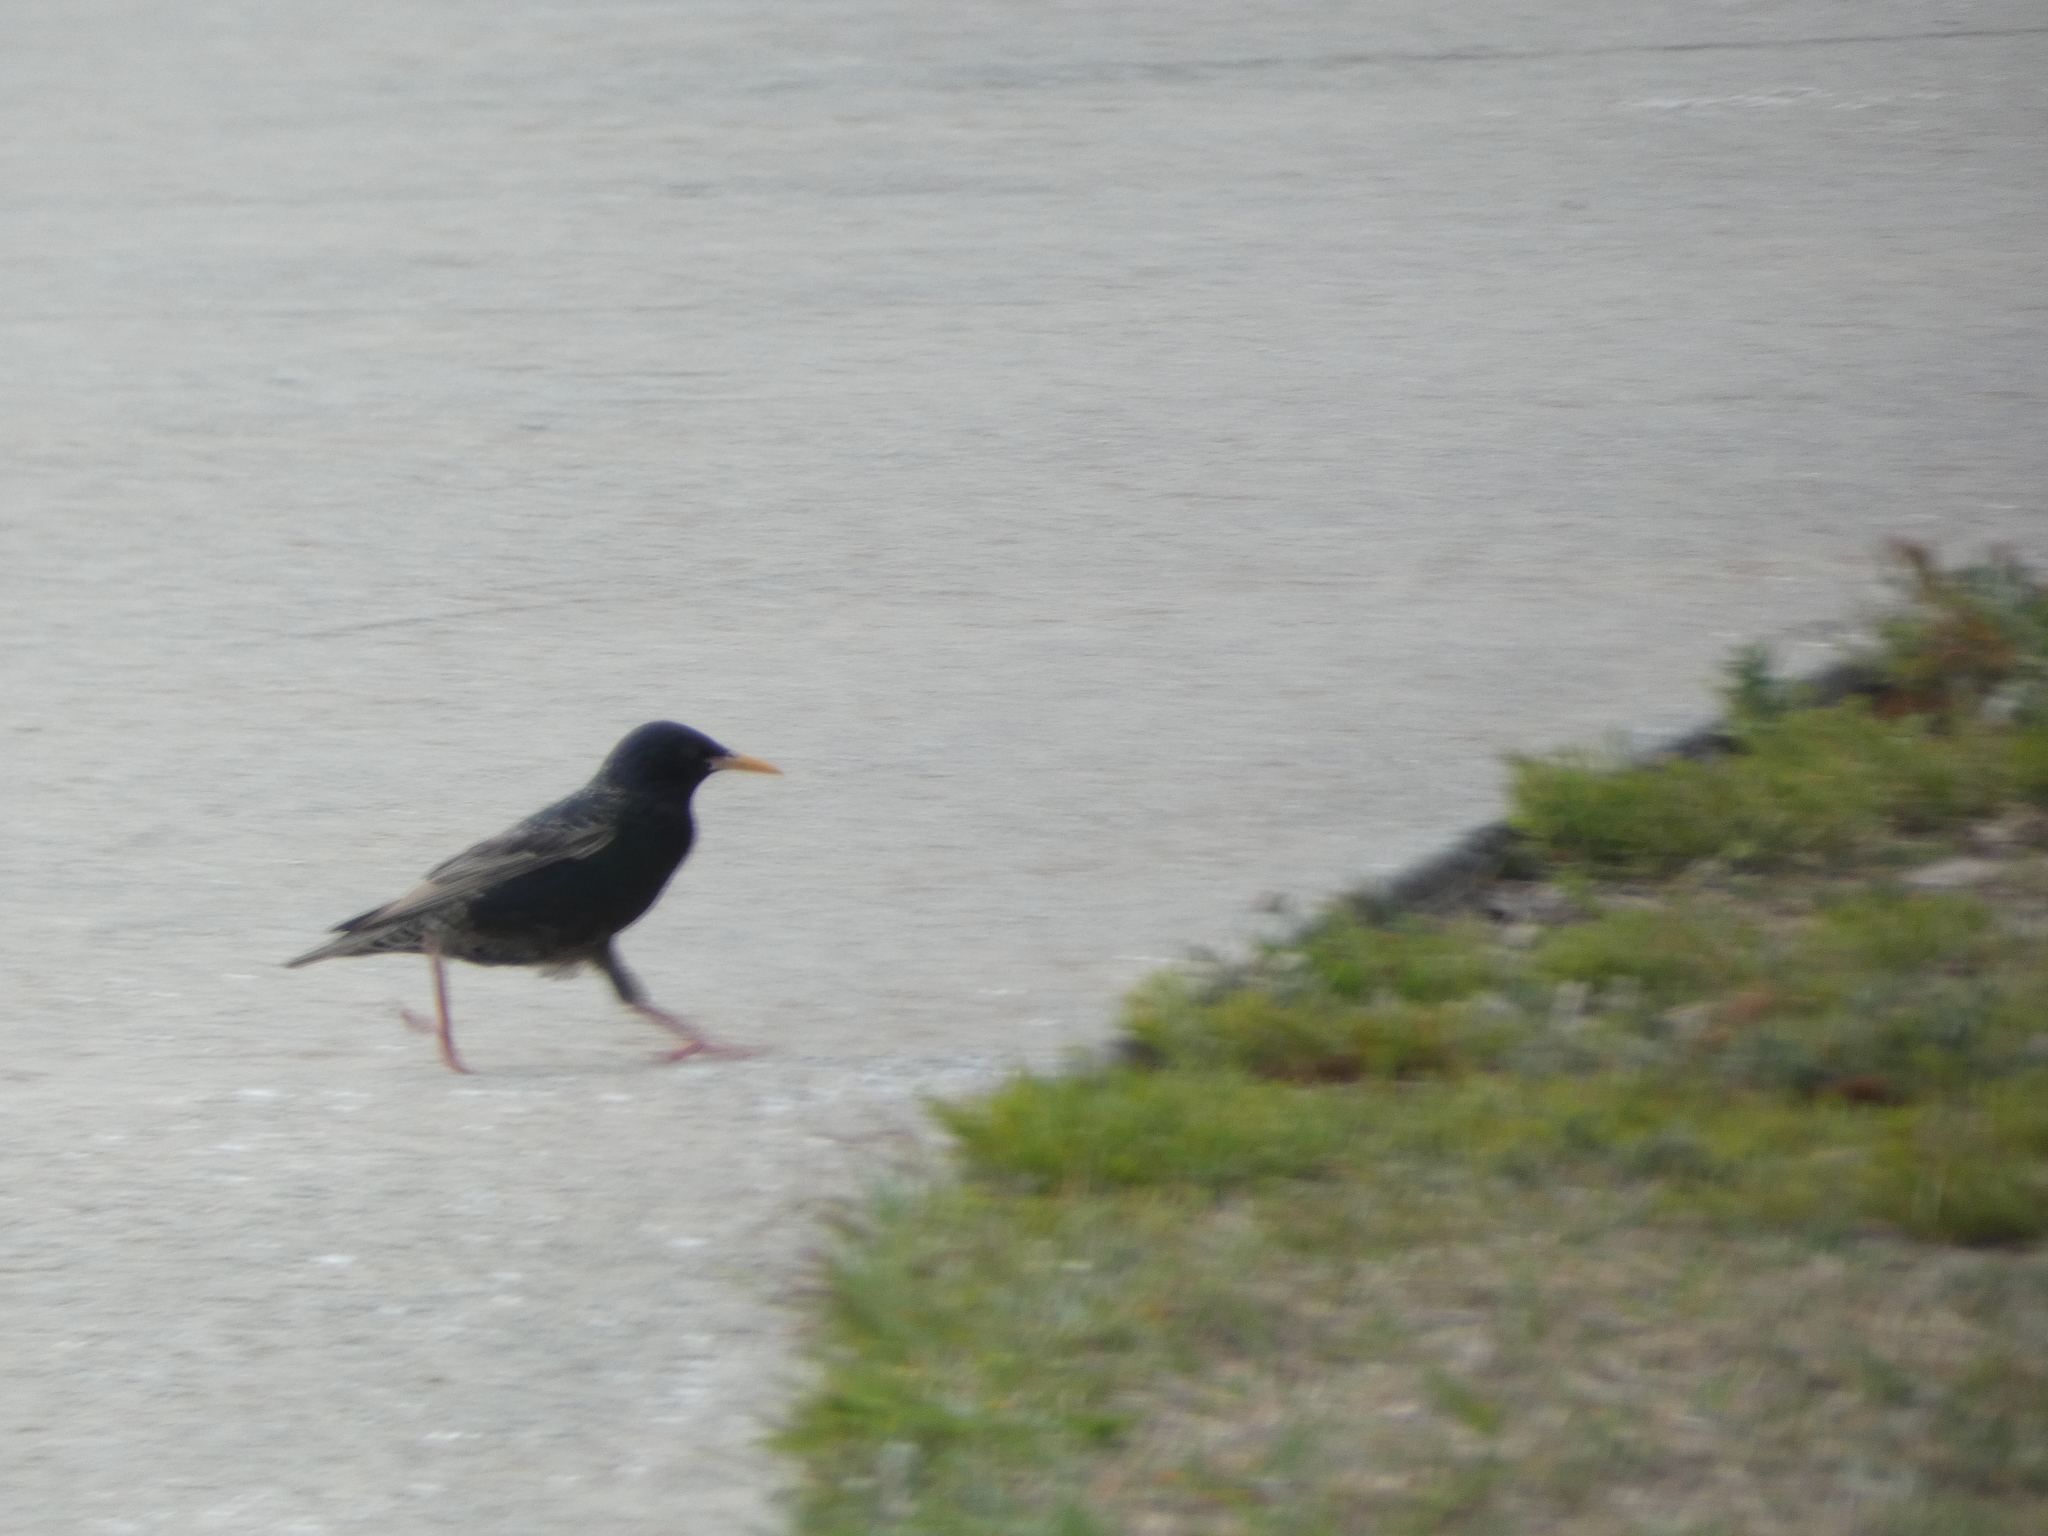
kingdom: Animalia
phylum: Chordata
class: Aves
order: Passeriformes
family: Sturnidae
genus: Sturnus
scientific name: Sturnus vulgaris
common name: Common starling
